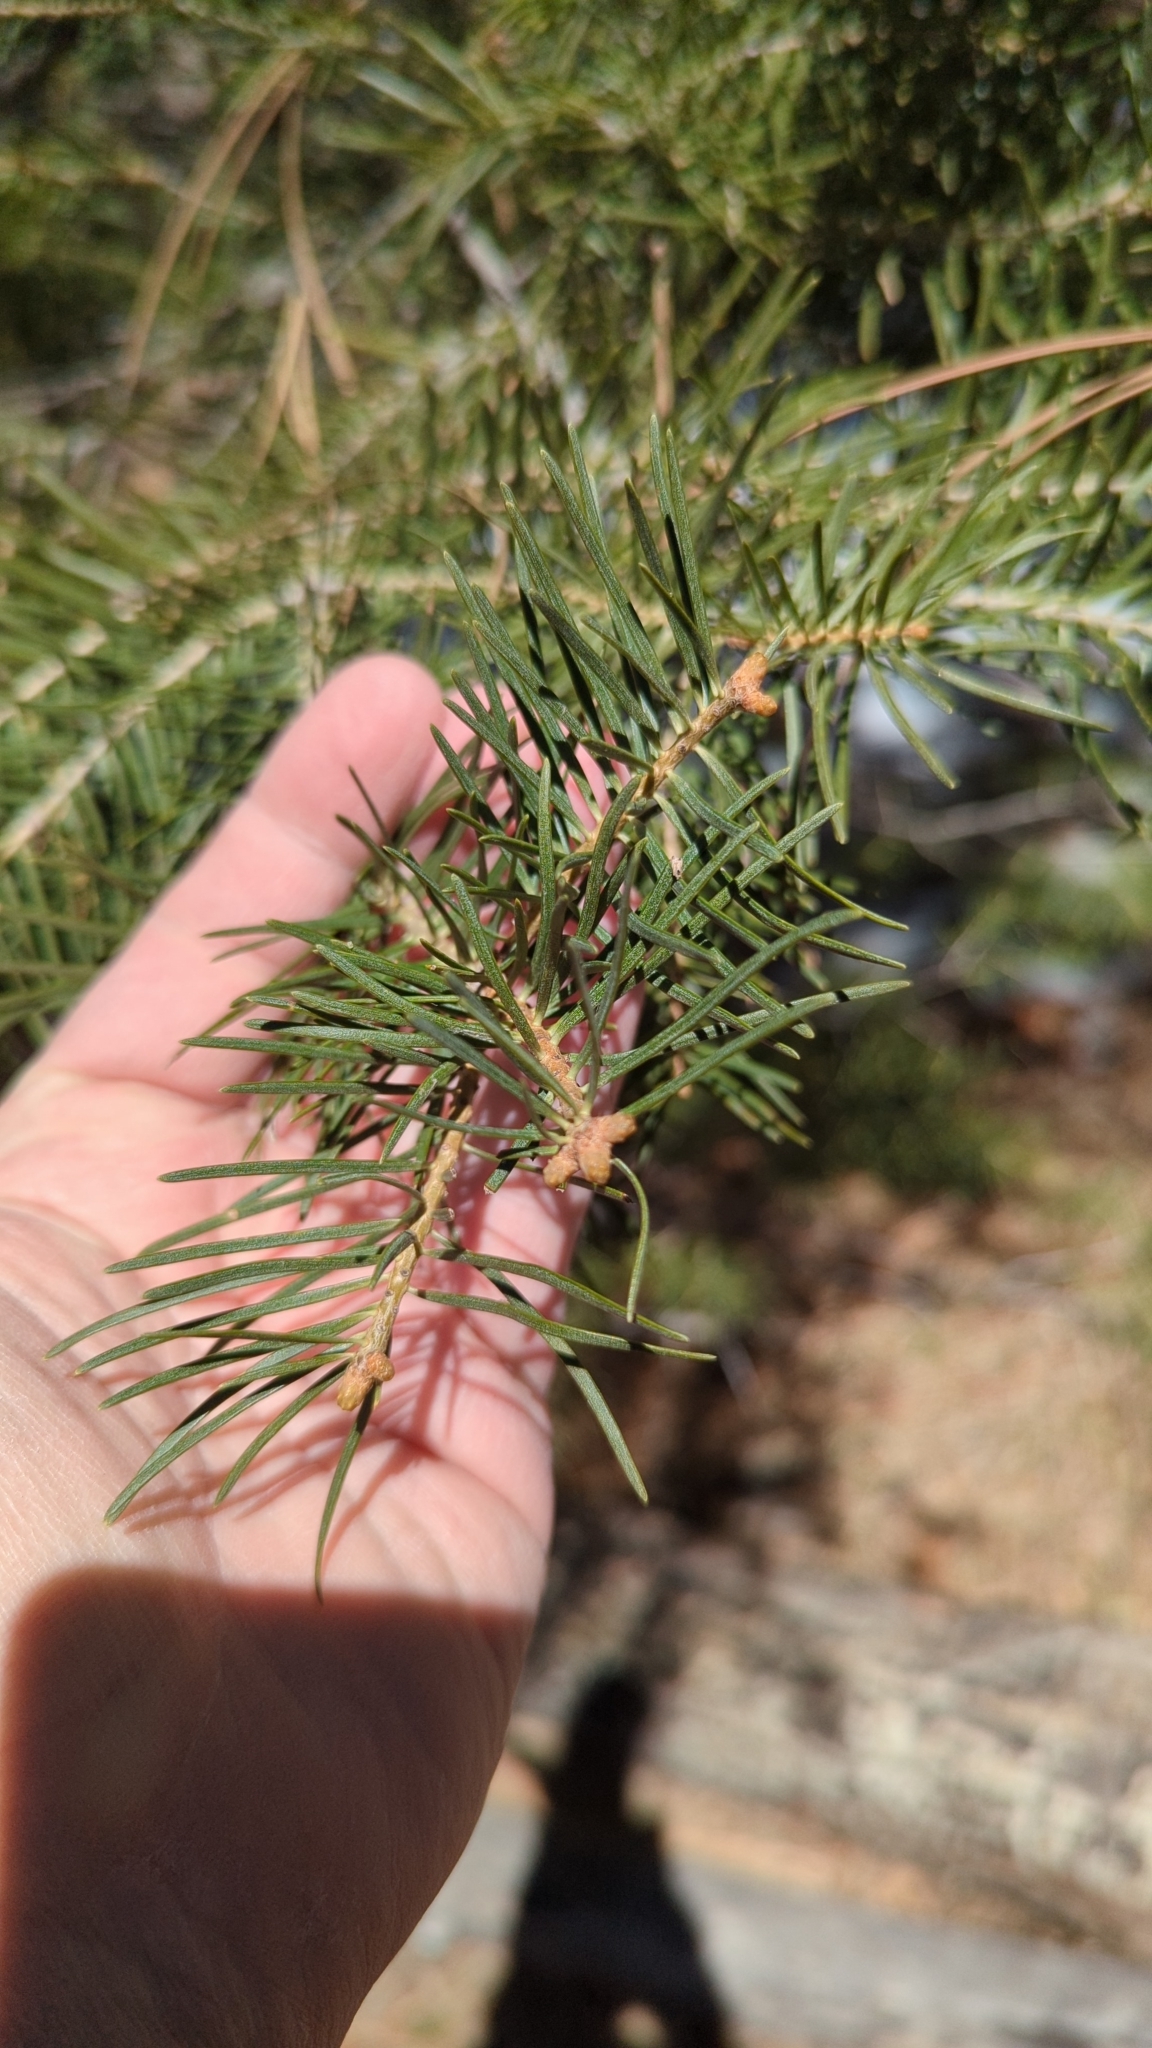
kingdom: Plantae
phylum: Tracheophyta
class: Pinopsida
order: Pinales
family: Pinaceae
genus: Abies
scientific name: Abies concolor
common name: Colorado fir
